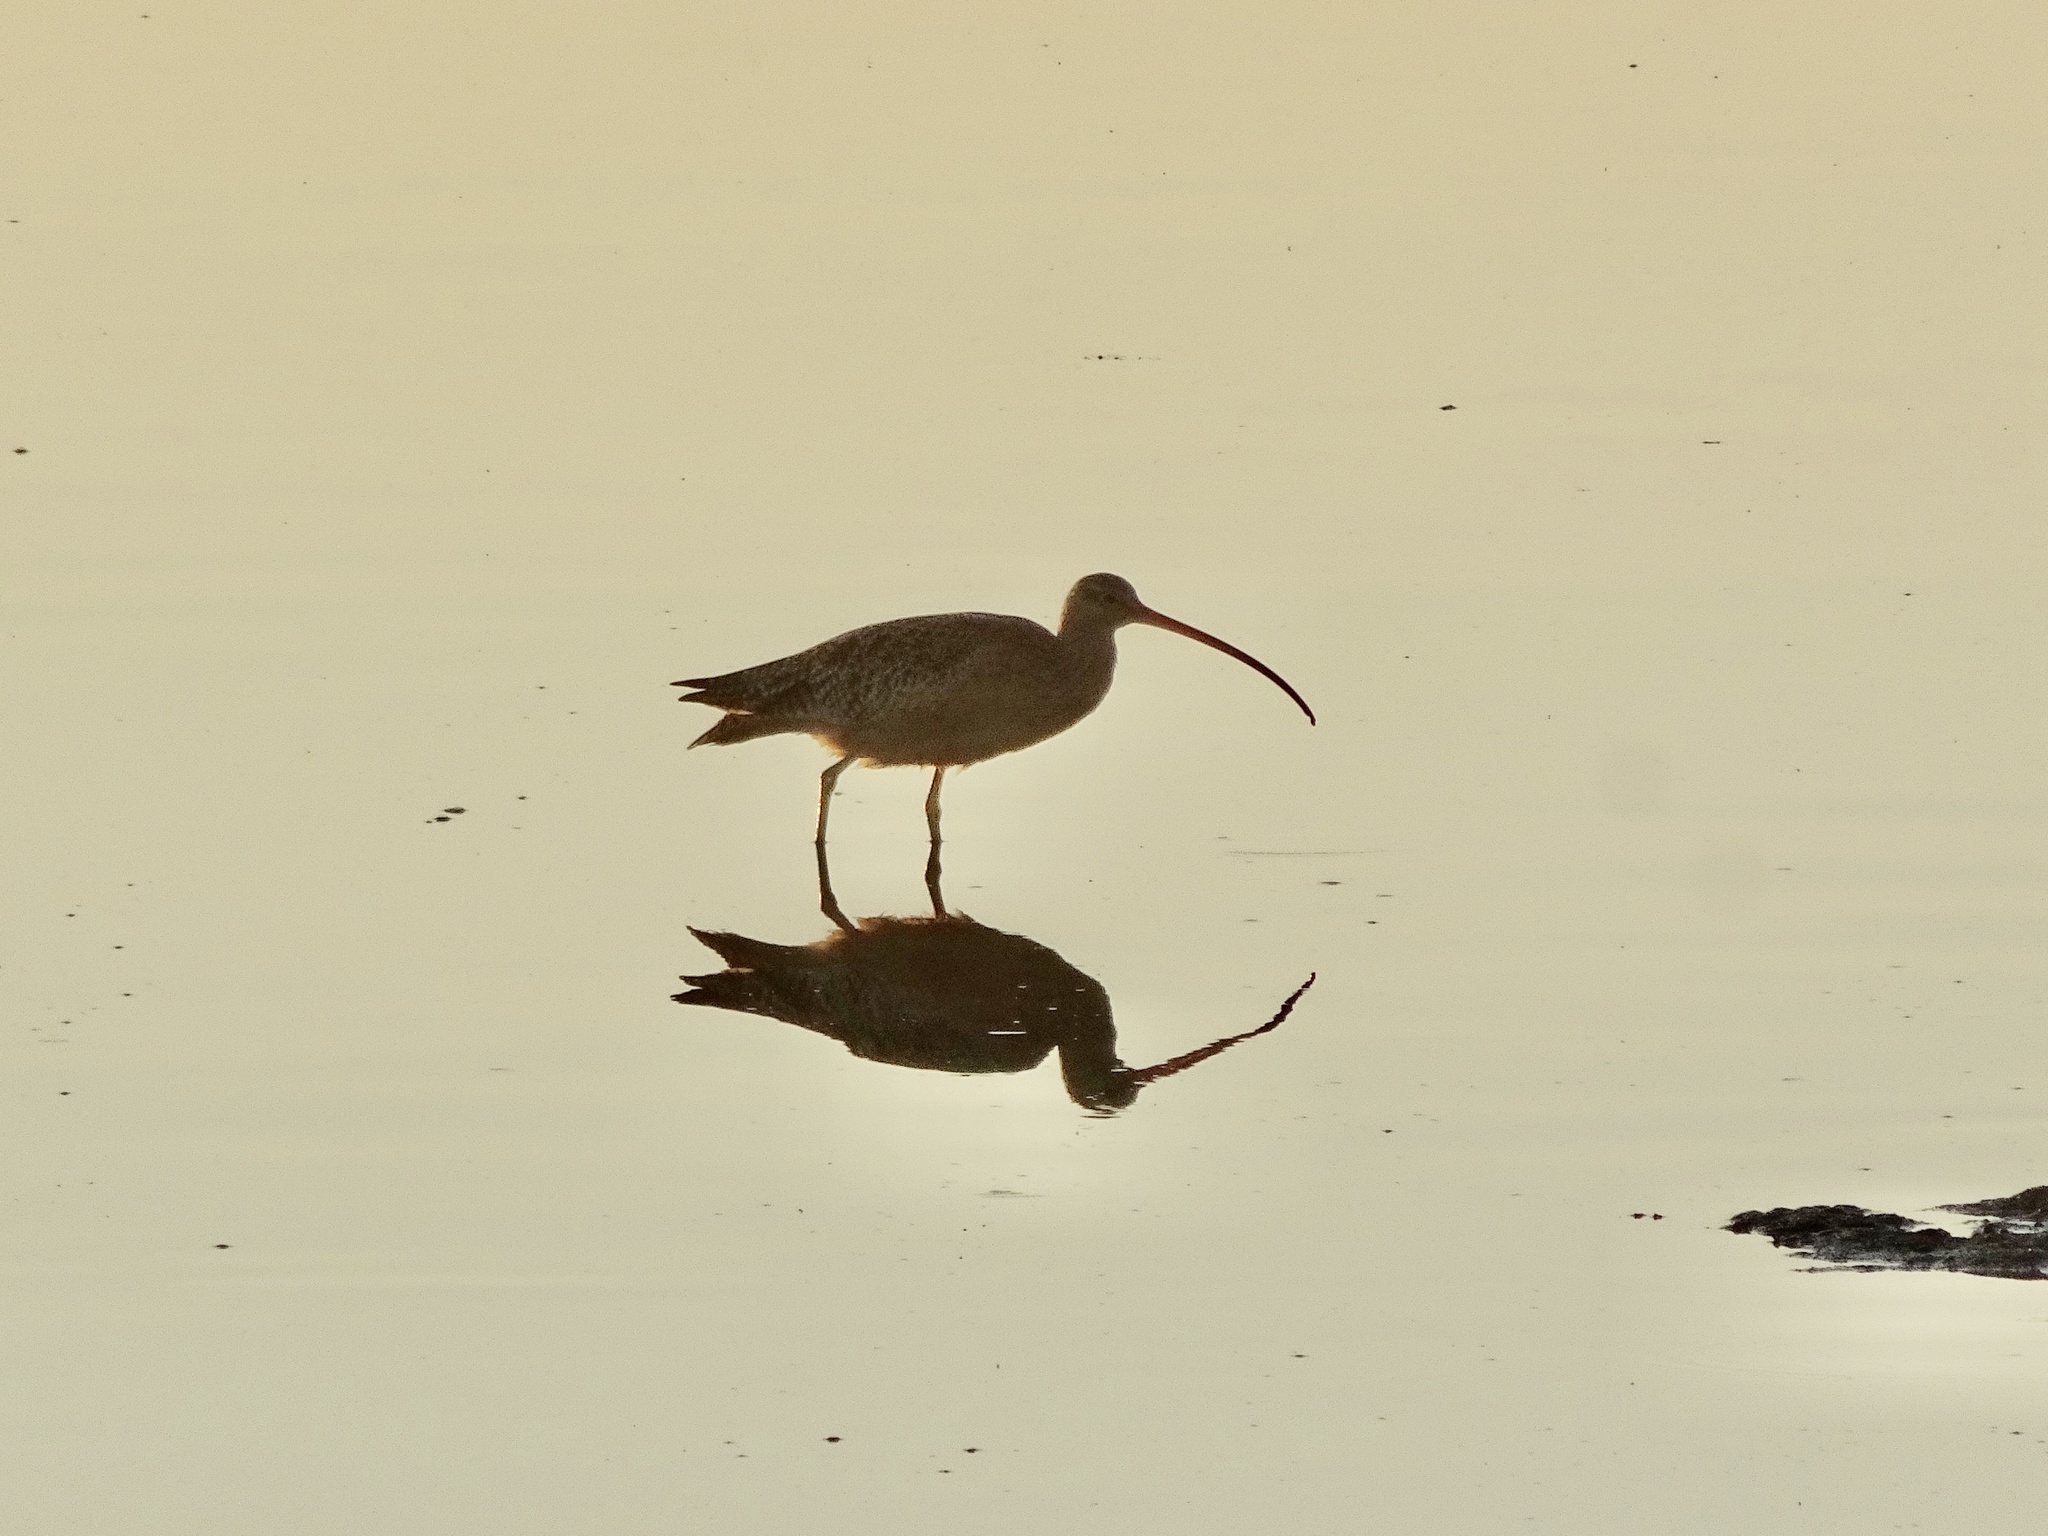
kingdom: Animalia
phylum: Chordata
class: Aves
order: Charadriiformes
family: Scolopacidae
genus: Numenius
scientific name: Numenius americanus
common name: Long-billed curlew
